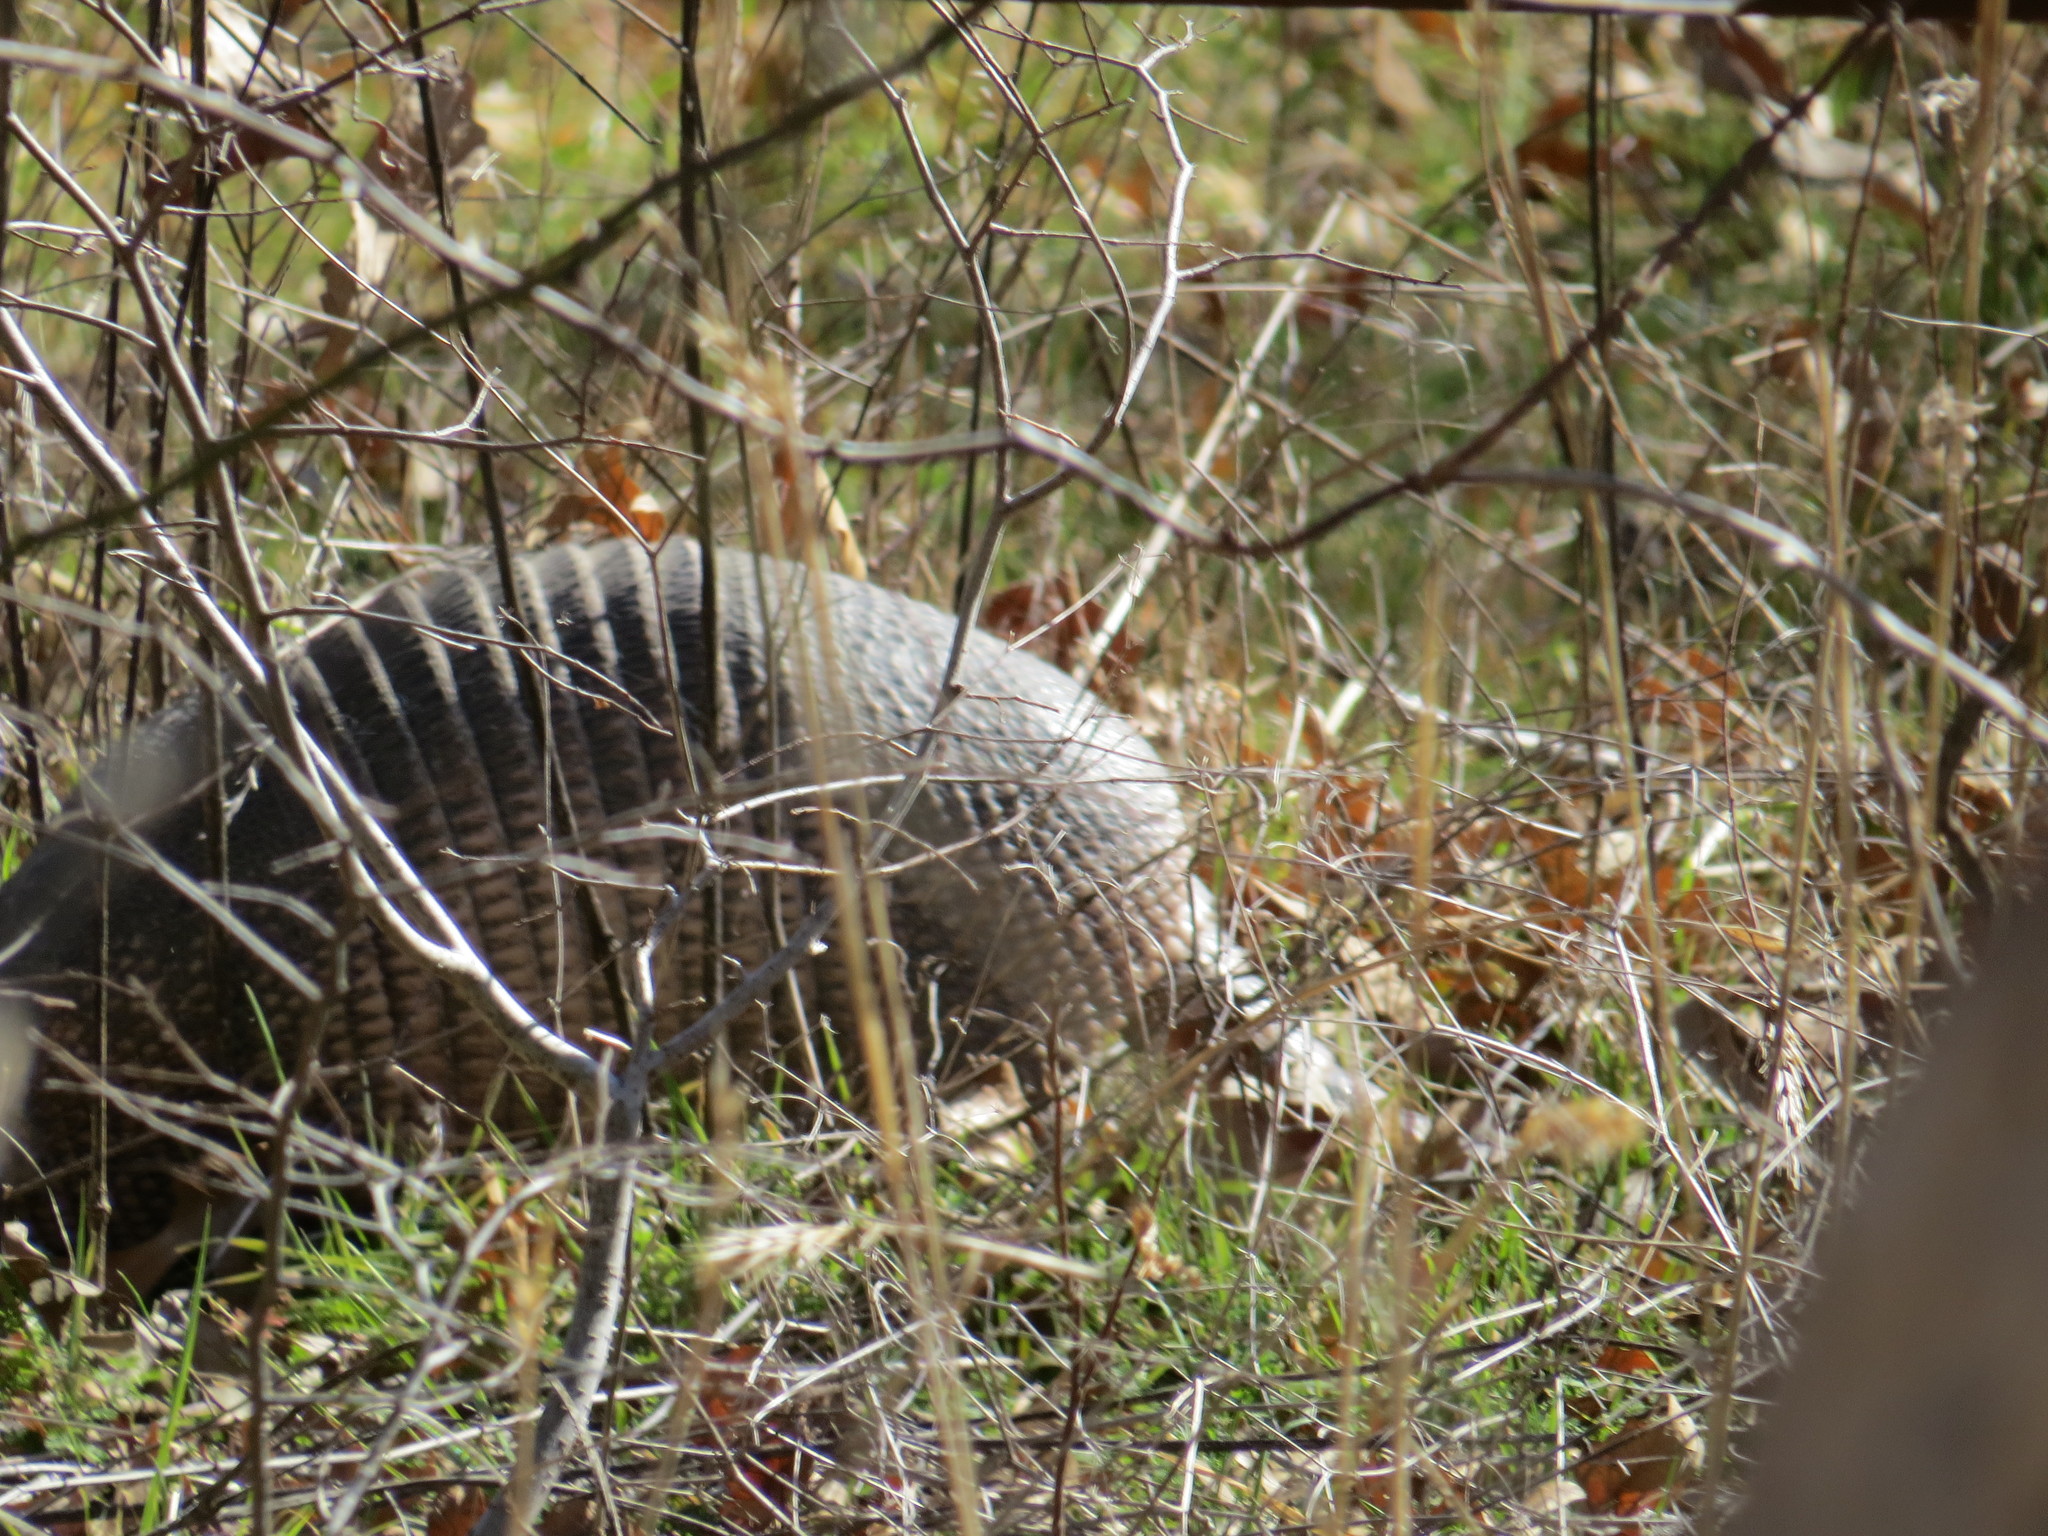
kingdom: Animalia
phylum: Chordata
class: Mammalia
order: Cingulata
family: Dasypodidae
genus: Dasypus
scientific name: Dasypus novemcinctus
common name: Nine-banded armadillo
